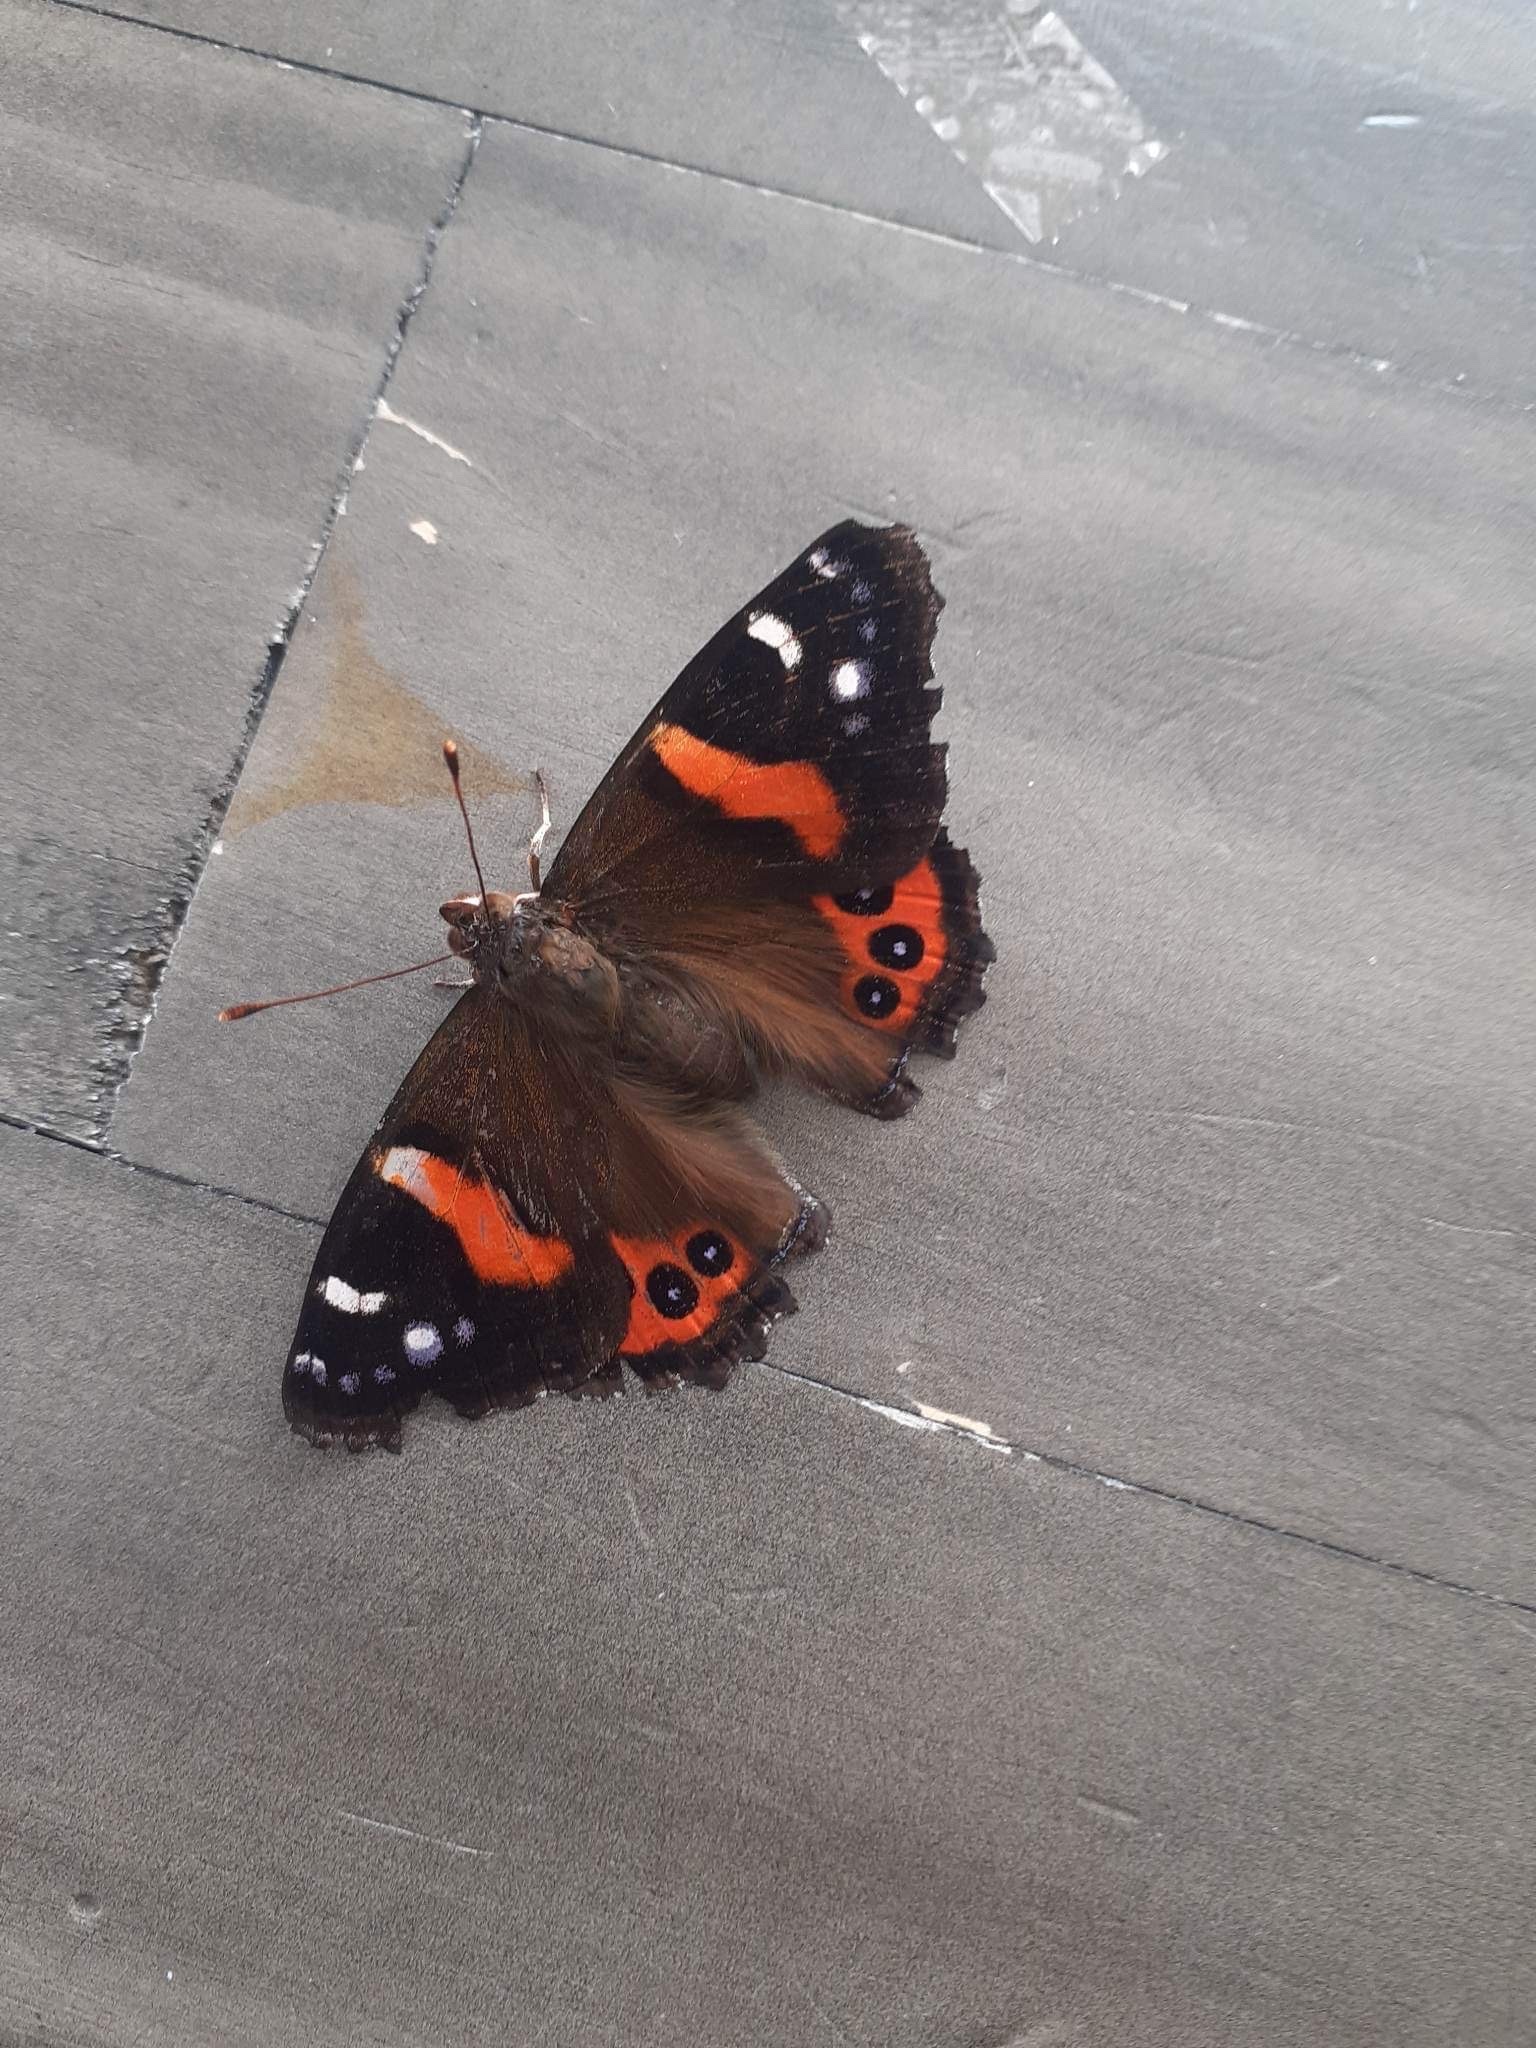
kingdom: Animalia
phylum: Arthropoda
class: Insecta
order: Lepidoptera
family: Nymphalidae
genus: Vanessa
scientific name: Vanessa gonerilla
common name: New zealand red admiral
